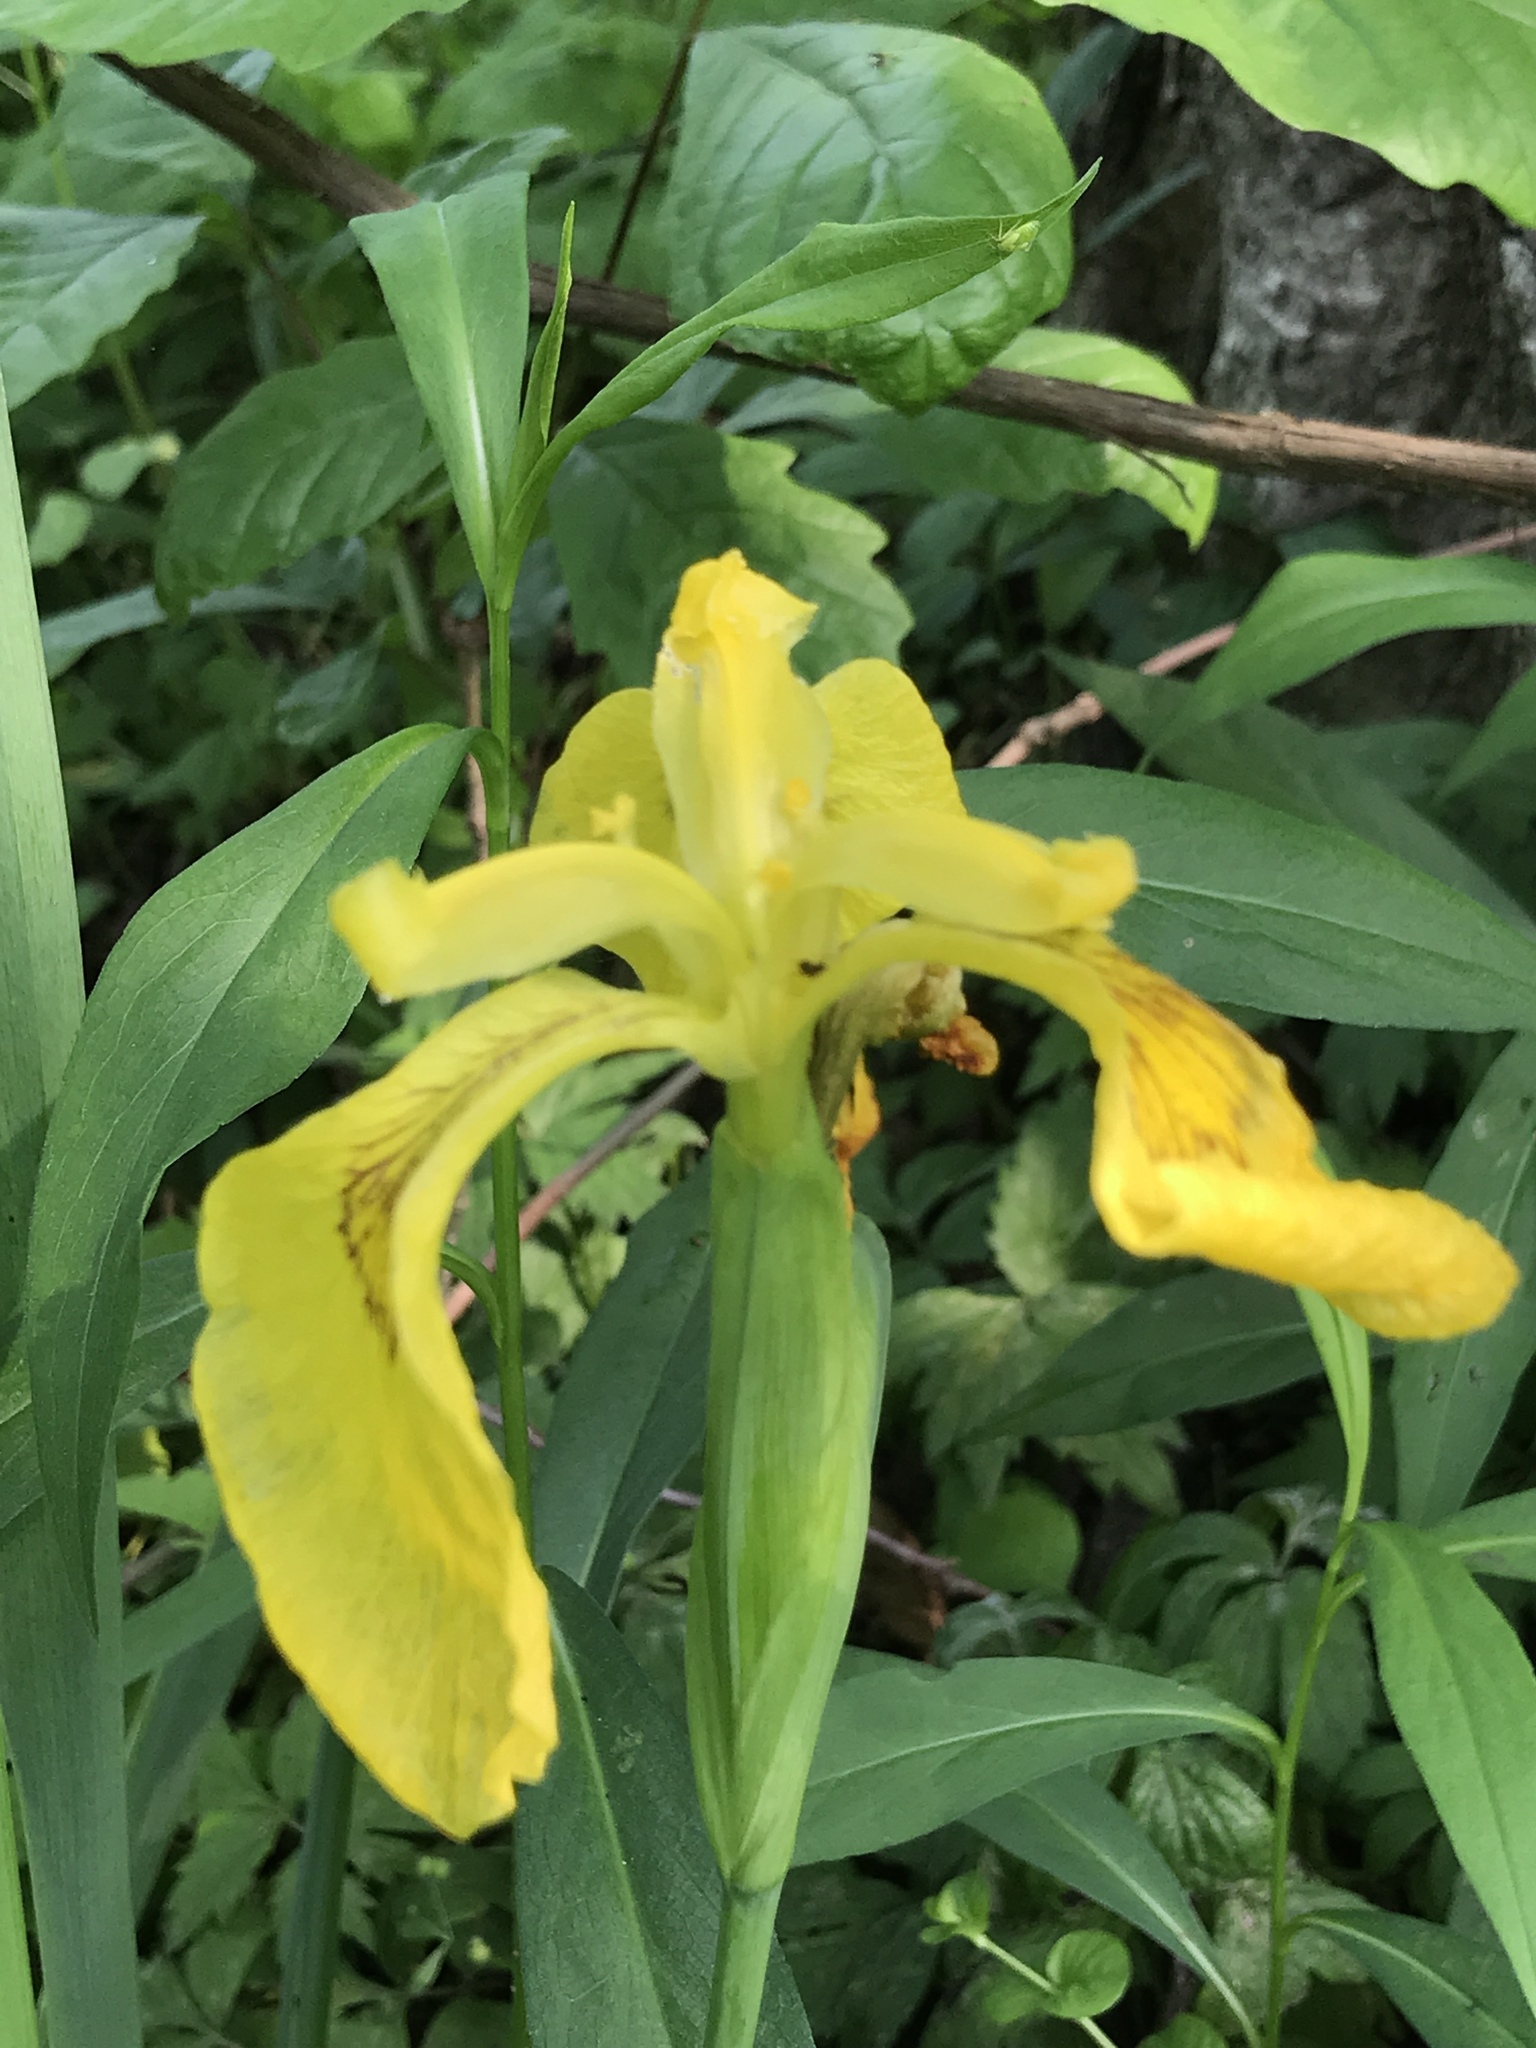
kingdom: Plantae
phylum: Tracheophyta
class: Liliopsida
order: Asparagales
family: Iridaceae
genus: Iris
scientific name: Iris pseudacorus
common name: Yellow flag
